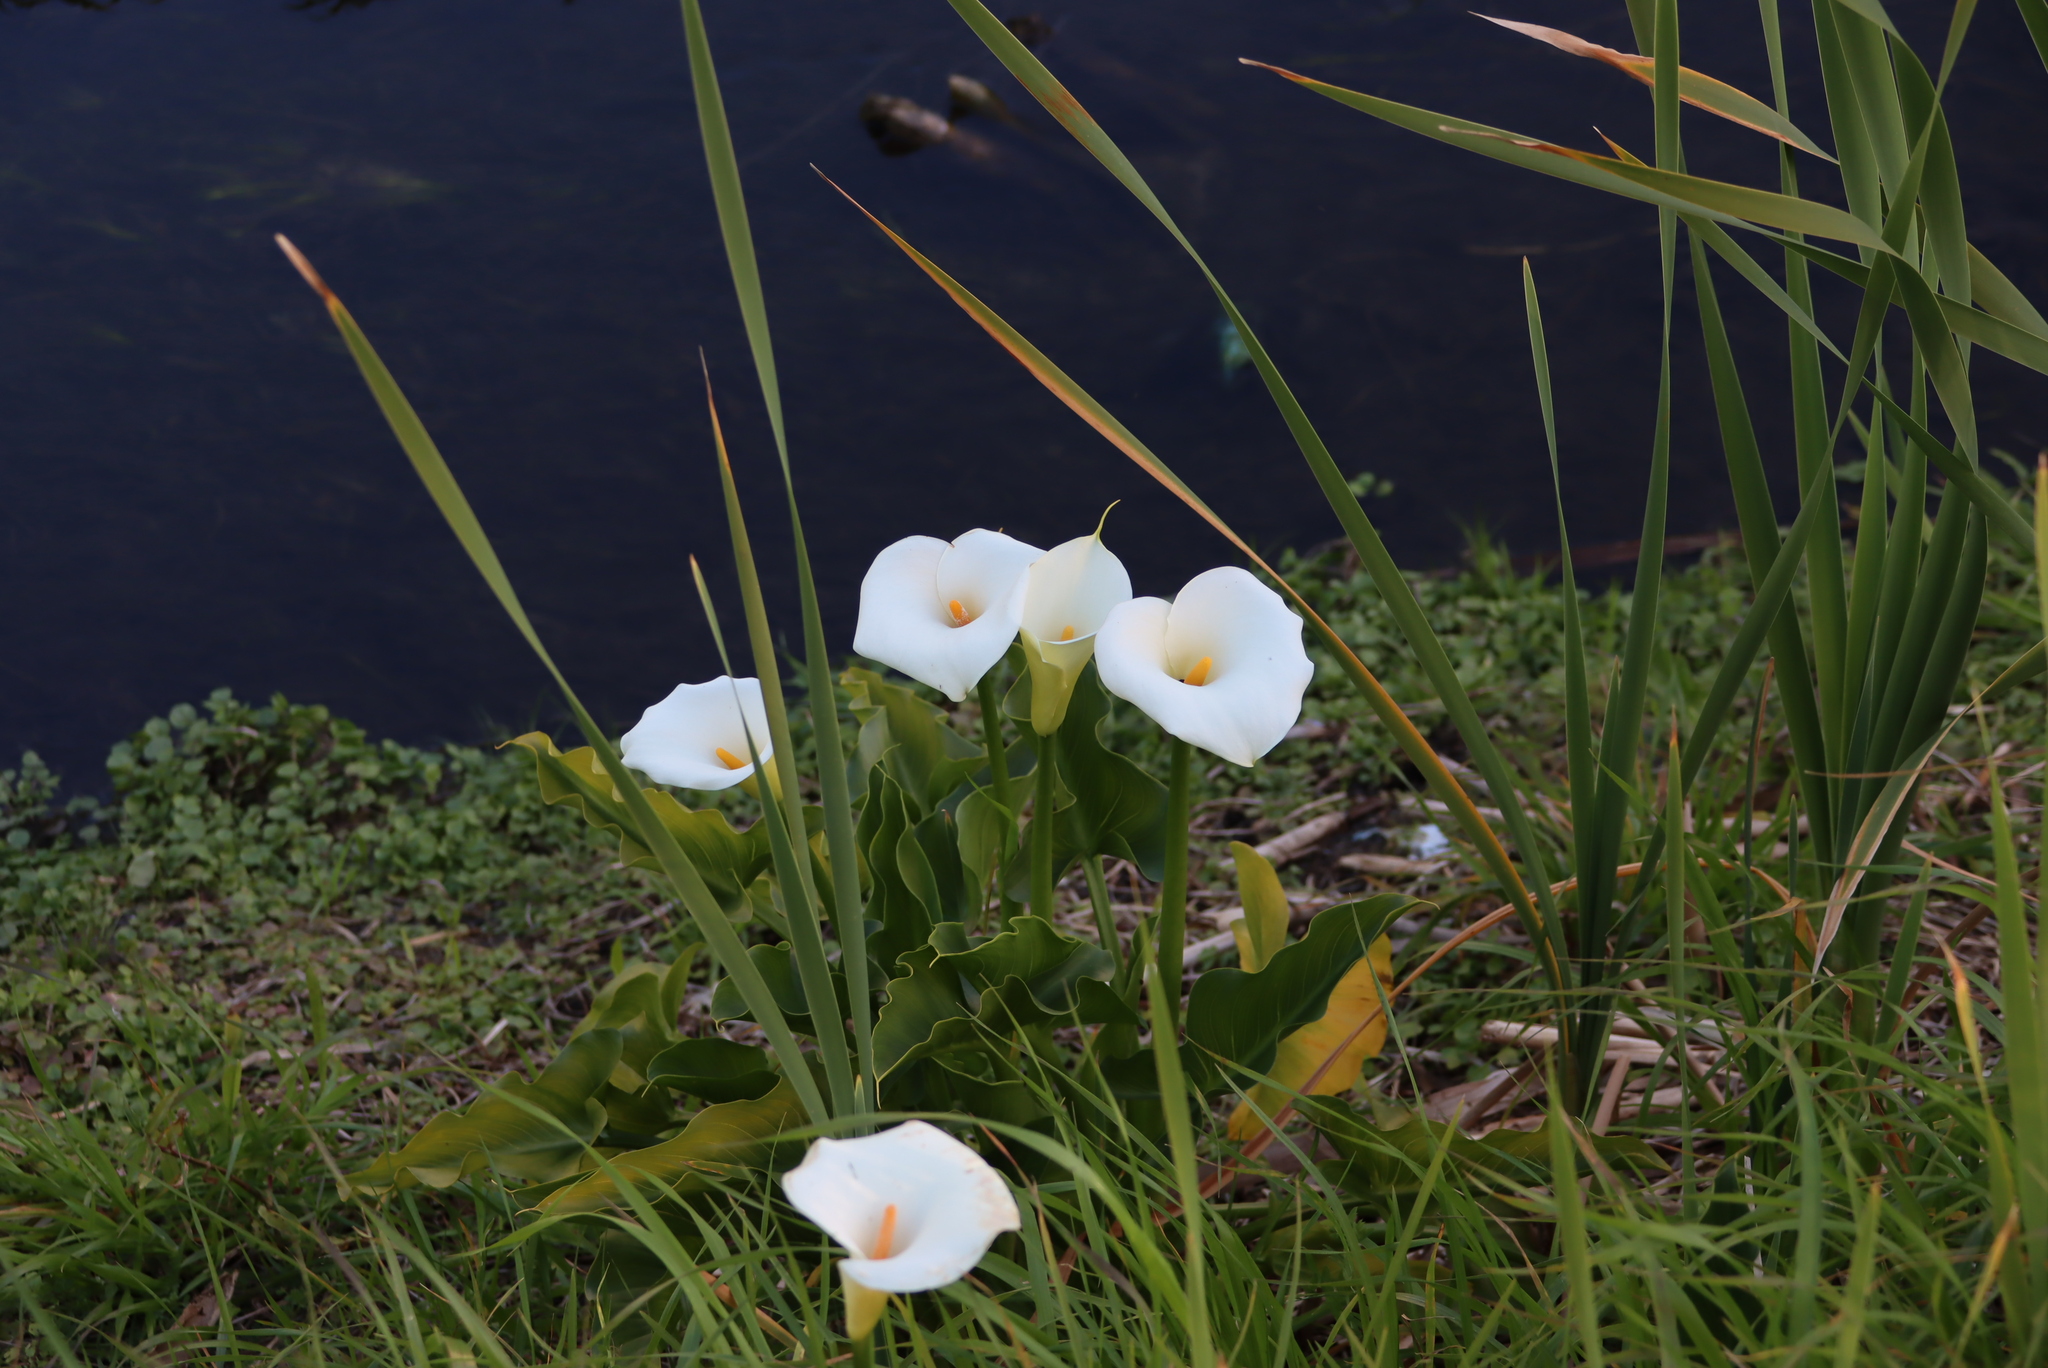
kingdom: Plantae
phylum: Tracheophyta
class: Liliopsida
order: Alismatales
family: Araceae
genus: Zantedeschia
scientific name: Zantedeschia aethiopica
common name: Altar-lily
